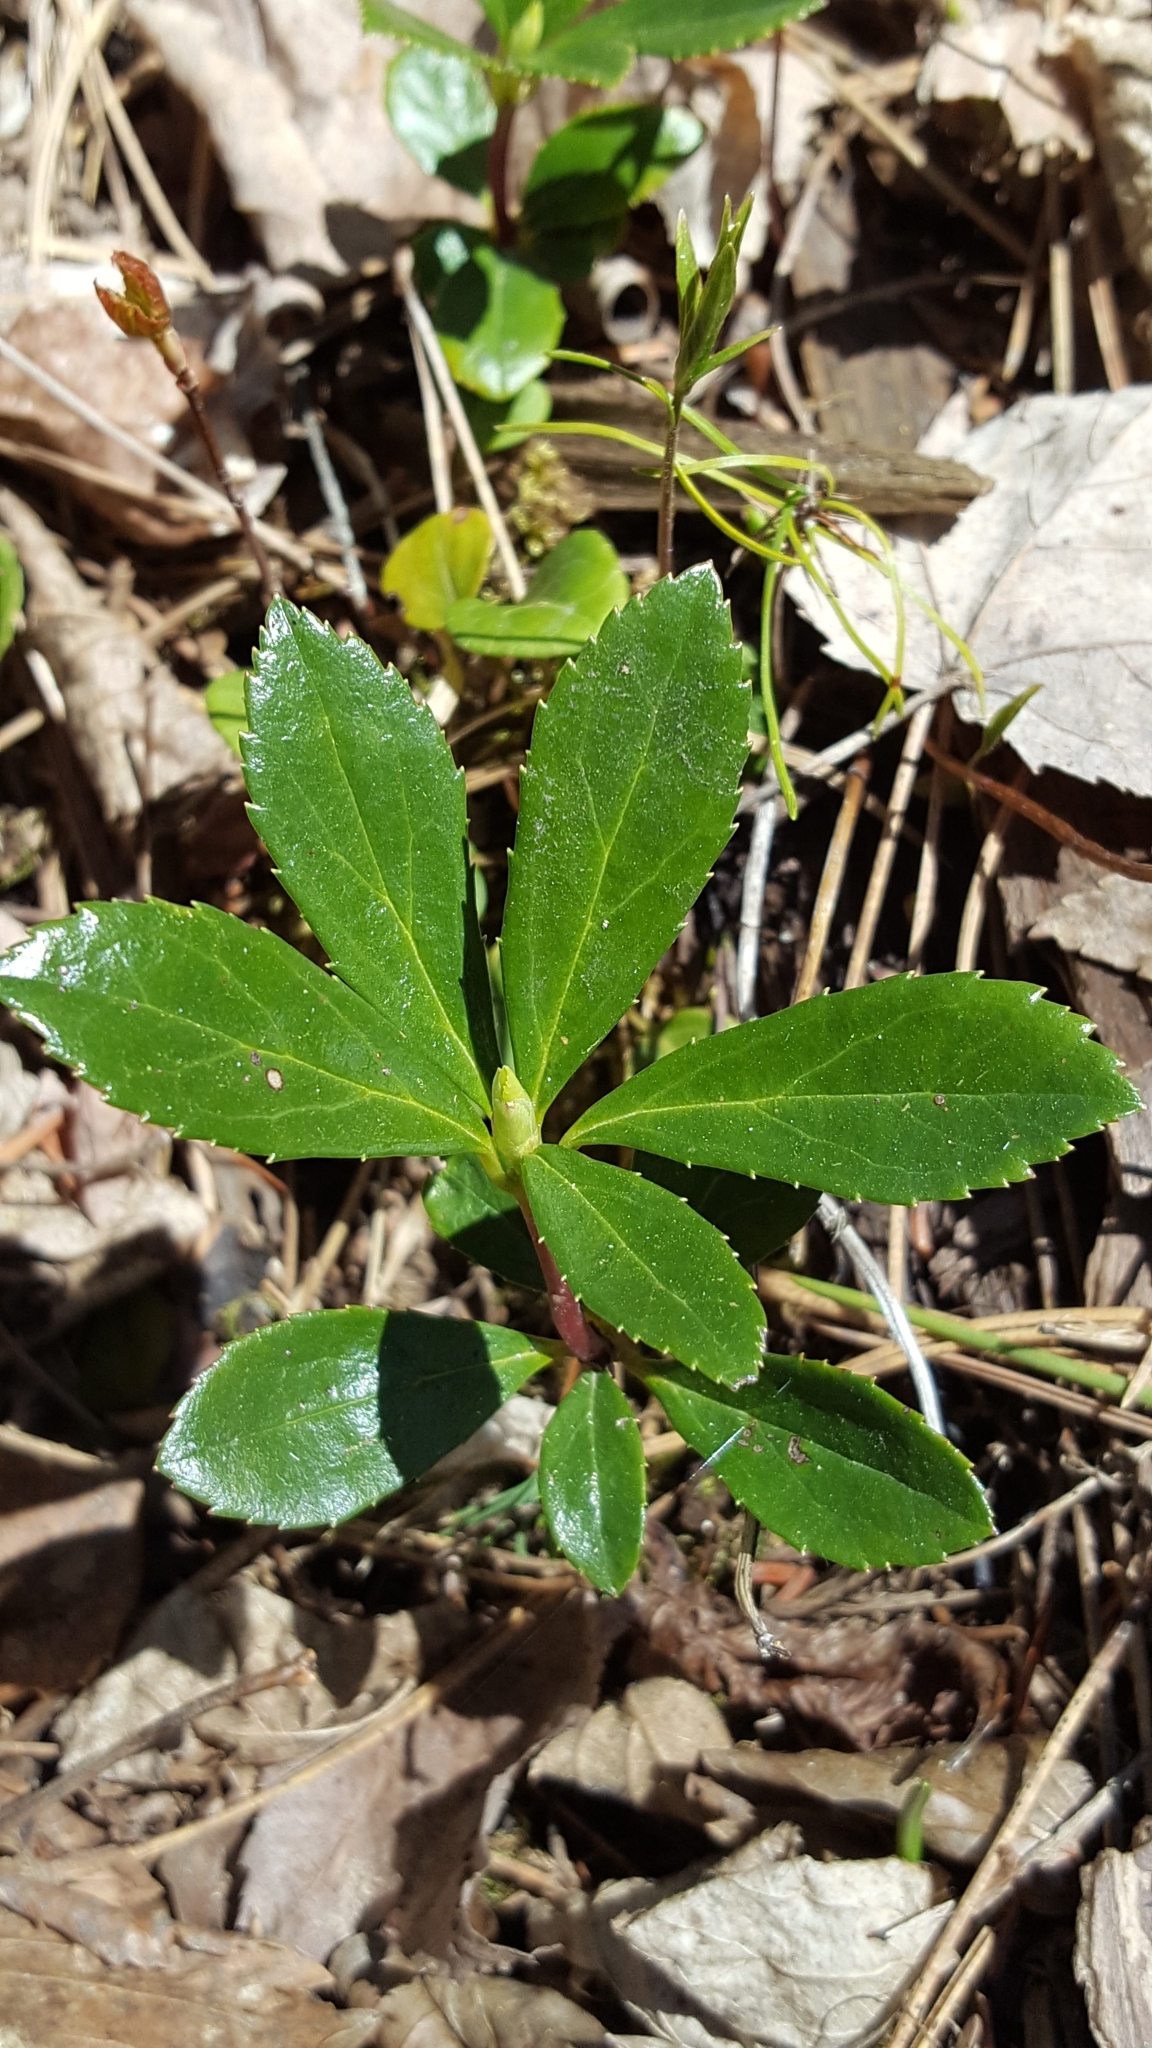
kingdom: Plantae
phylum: Tracheophyta
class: Magnoliopsida
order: Ericales
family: Ericaceae
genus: Chimaphila
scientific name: Chimaphila umbellata
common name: Pipsissewa
